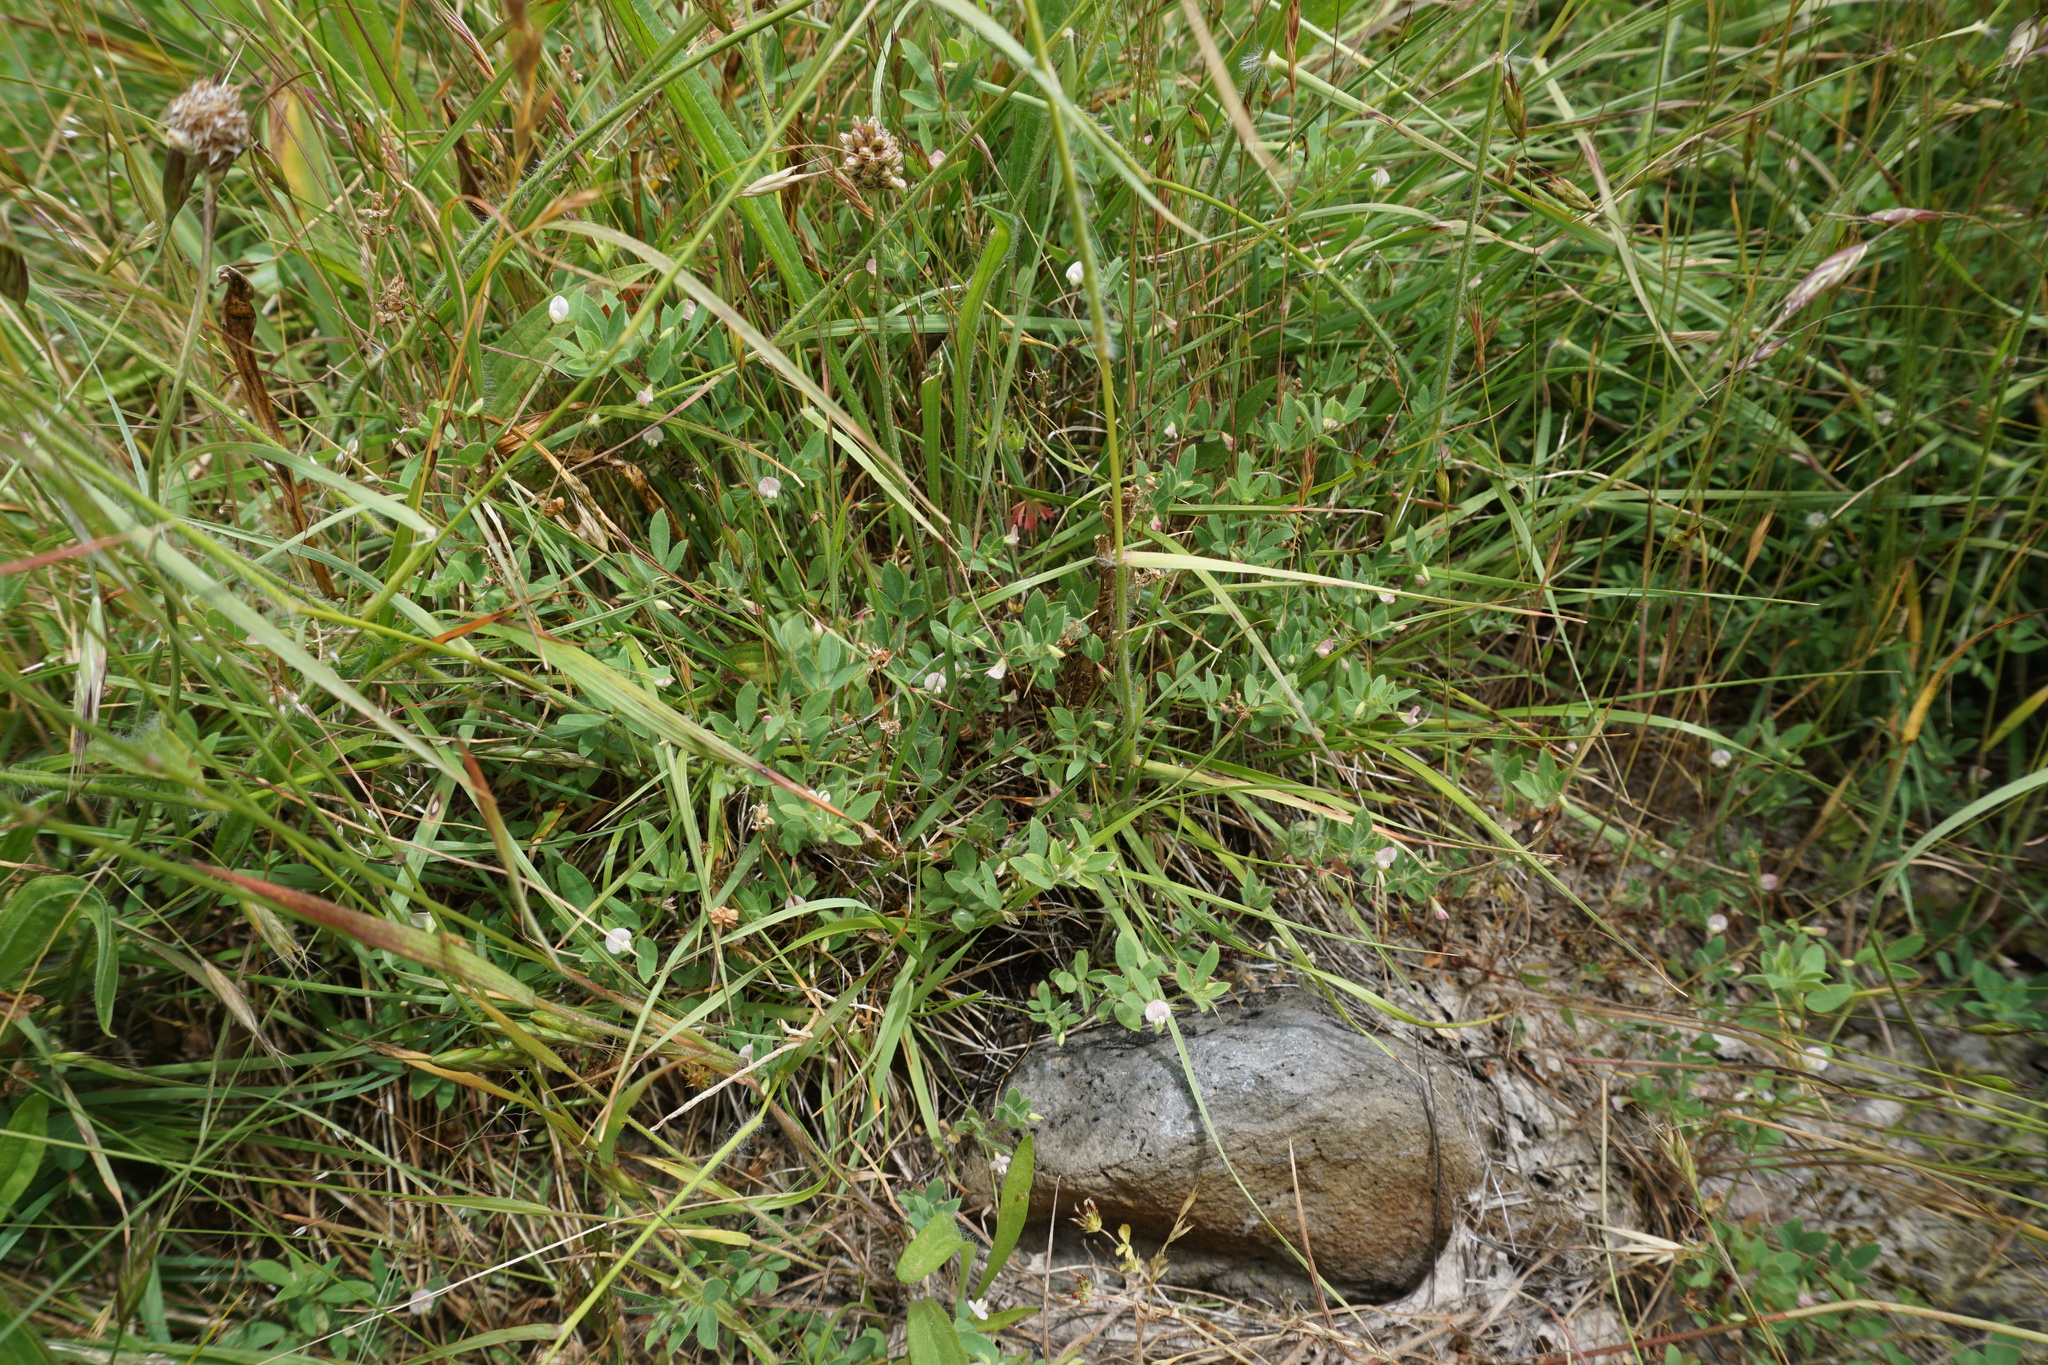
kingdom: Plantae
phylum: Tracheophyta
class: Magnoliopsida
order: Fabales
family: Fabaceae
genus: Acmispon
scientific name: Acmispon americanus
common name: American bird's-foot trefoil
